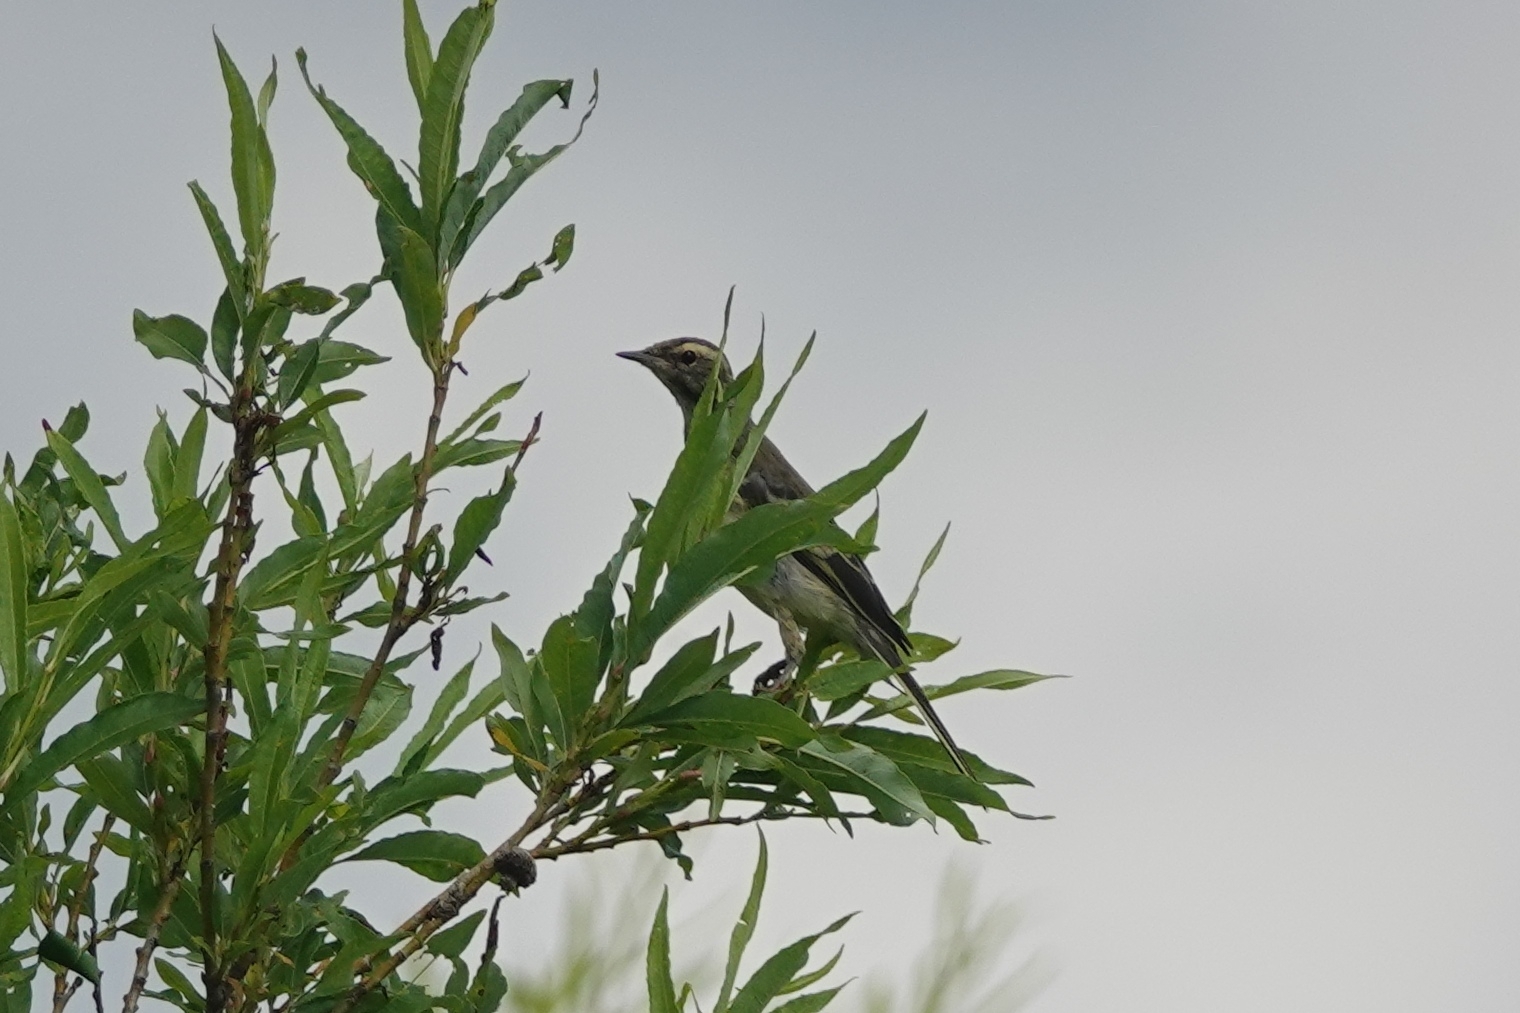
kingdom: Animalia
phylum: Chordata
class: Aves
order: Passeriformes
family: Motacillidae
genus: Motacilla
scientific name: Motacilla tschutschensis
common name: Eastern yellow wagtail
